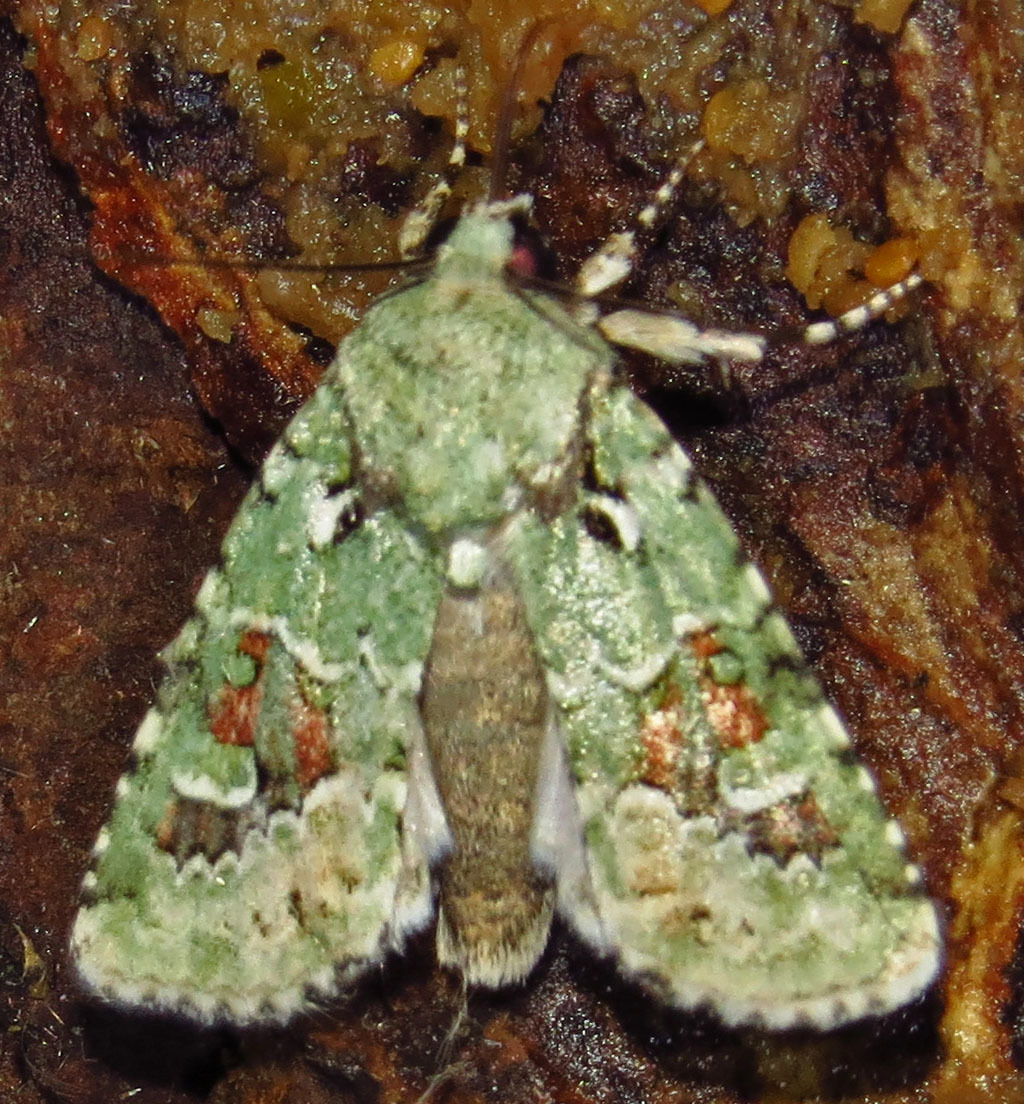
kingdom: Animalia
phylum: Arthropoda
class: Insecta
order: Lepidoptera
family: Noctuidae
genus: Lacinipolia
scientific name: Lacinipolia laudabilis
